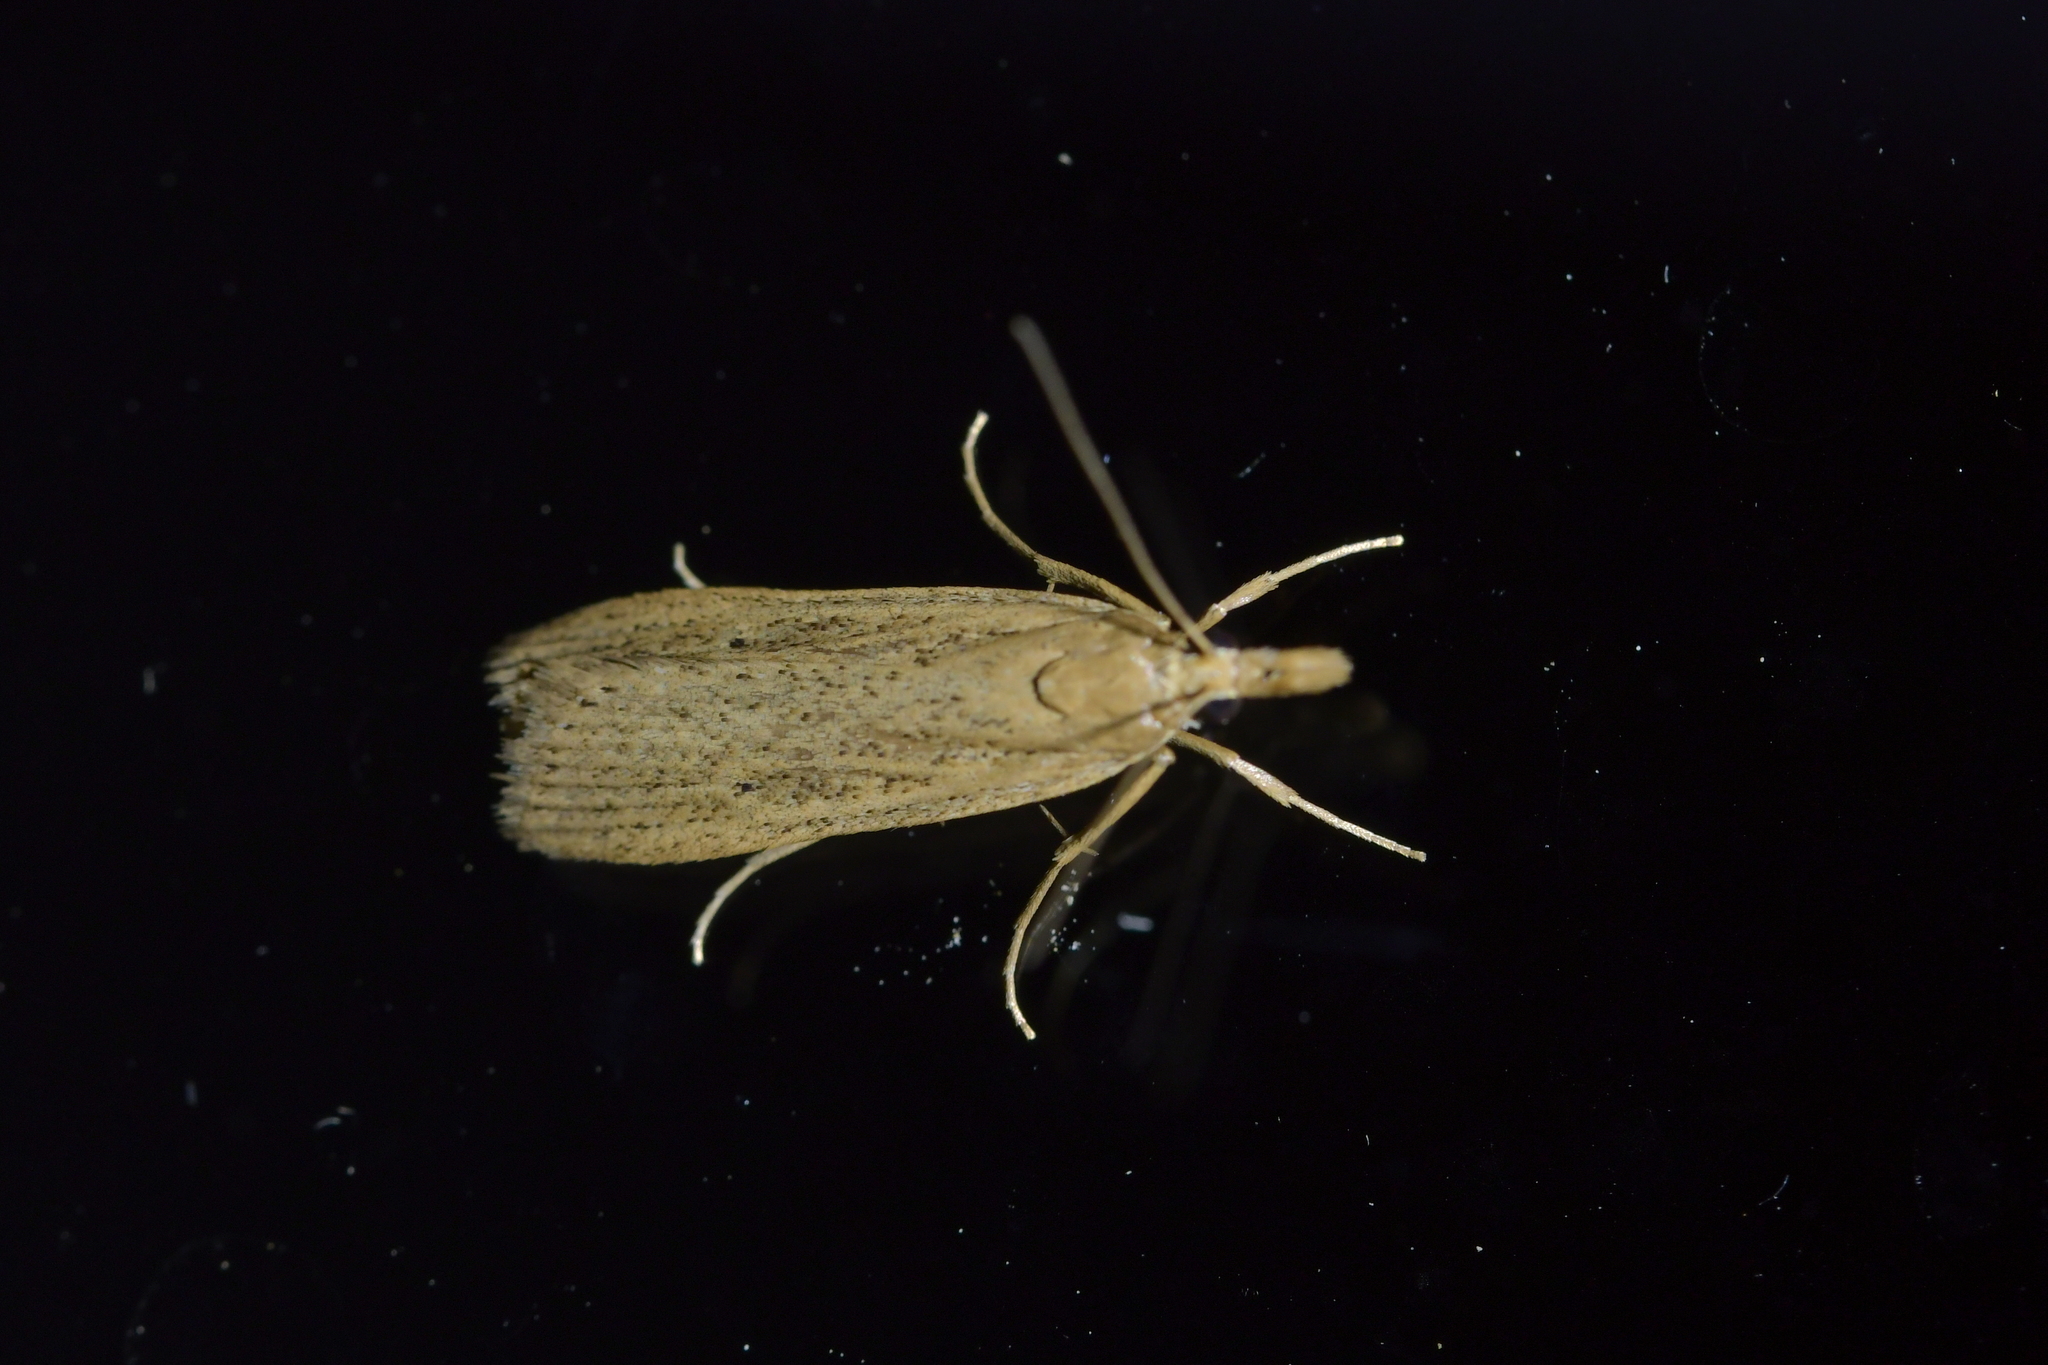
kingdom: Animalia
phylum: Arthropoda
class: Insecta
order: Lepidoptera
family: Crambidae
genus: Eudonia
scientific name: Eudonia sabulosella
